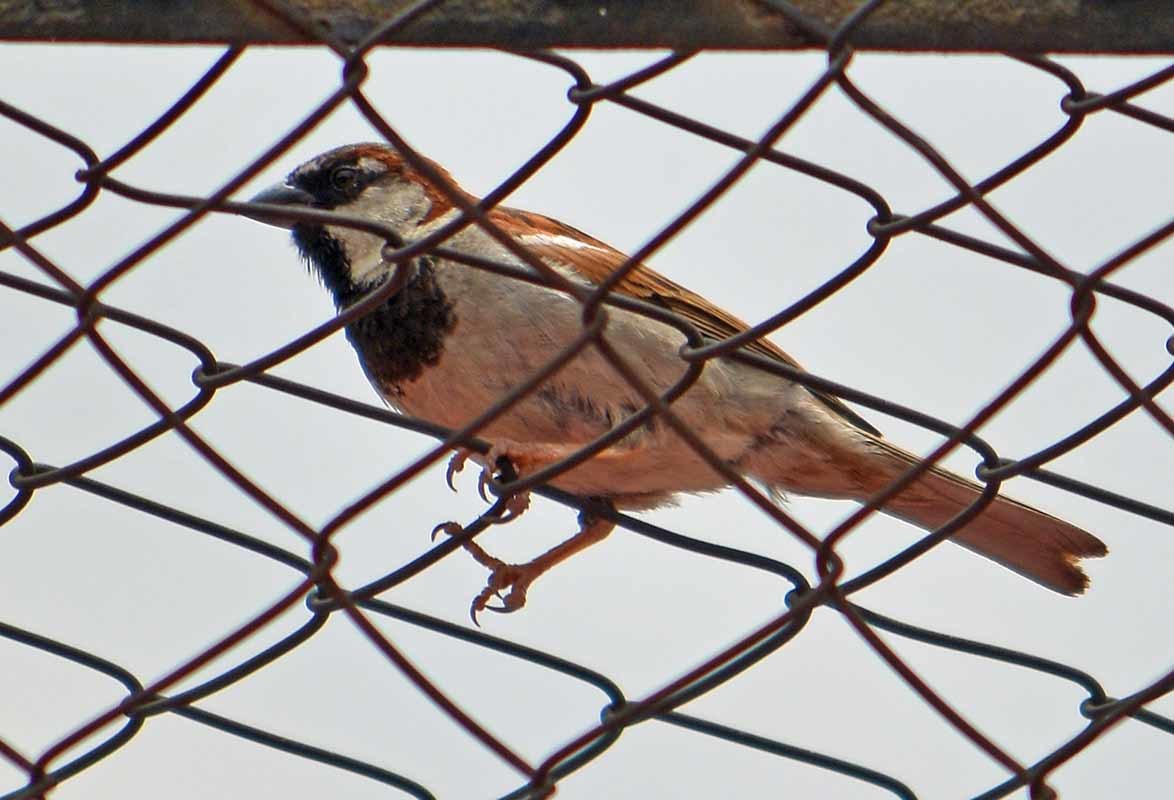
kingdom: Animalia
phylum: Chordata
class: Aves
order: Passeriformes
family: Passeridae
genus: Passer
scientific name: Passer domesticus
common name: House sparrow
